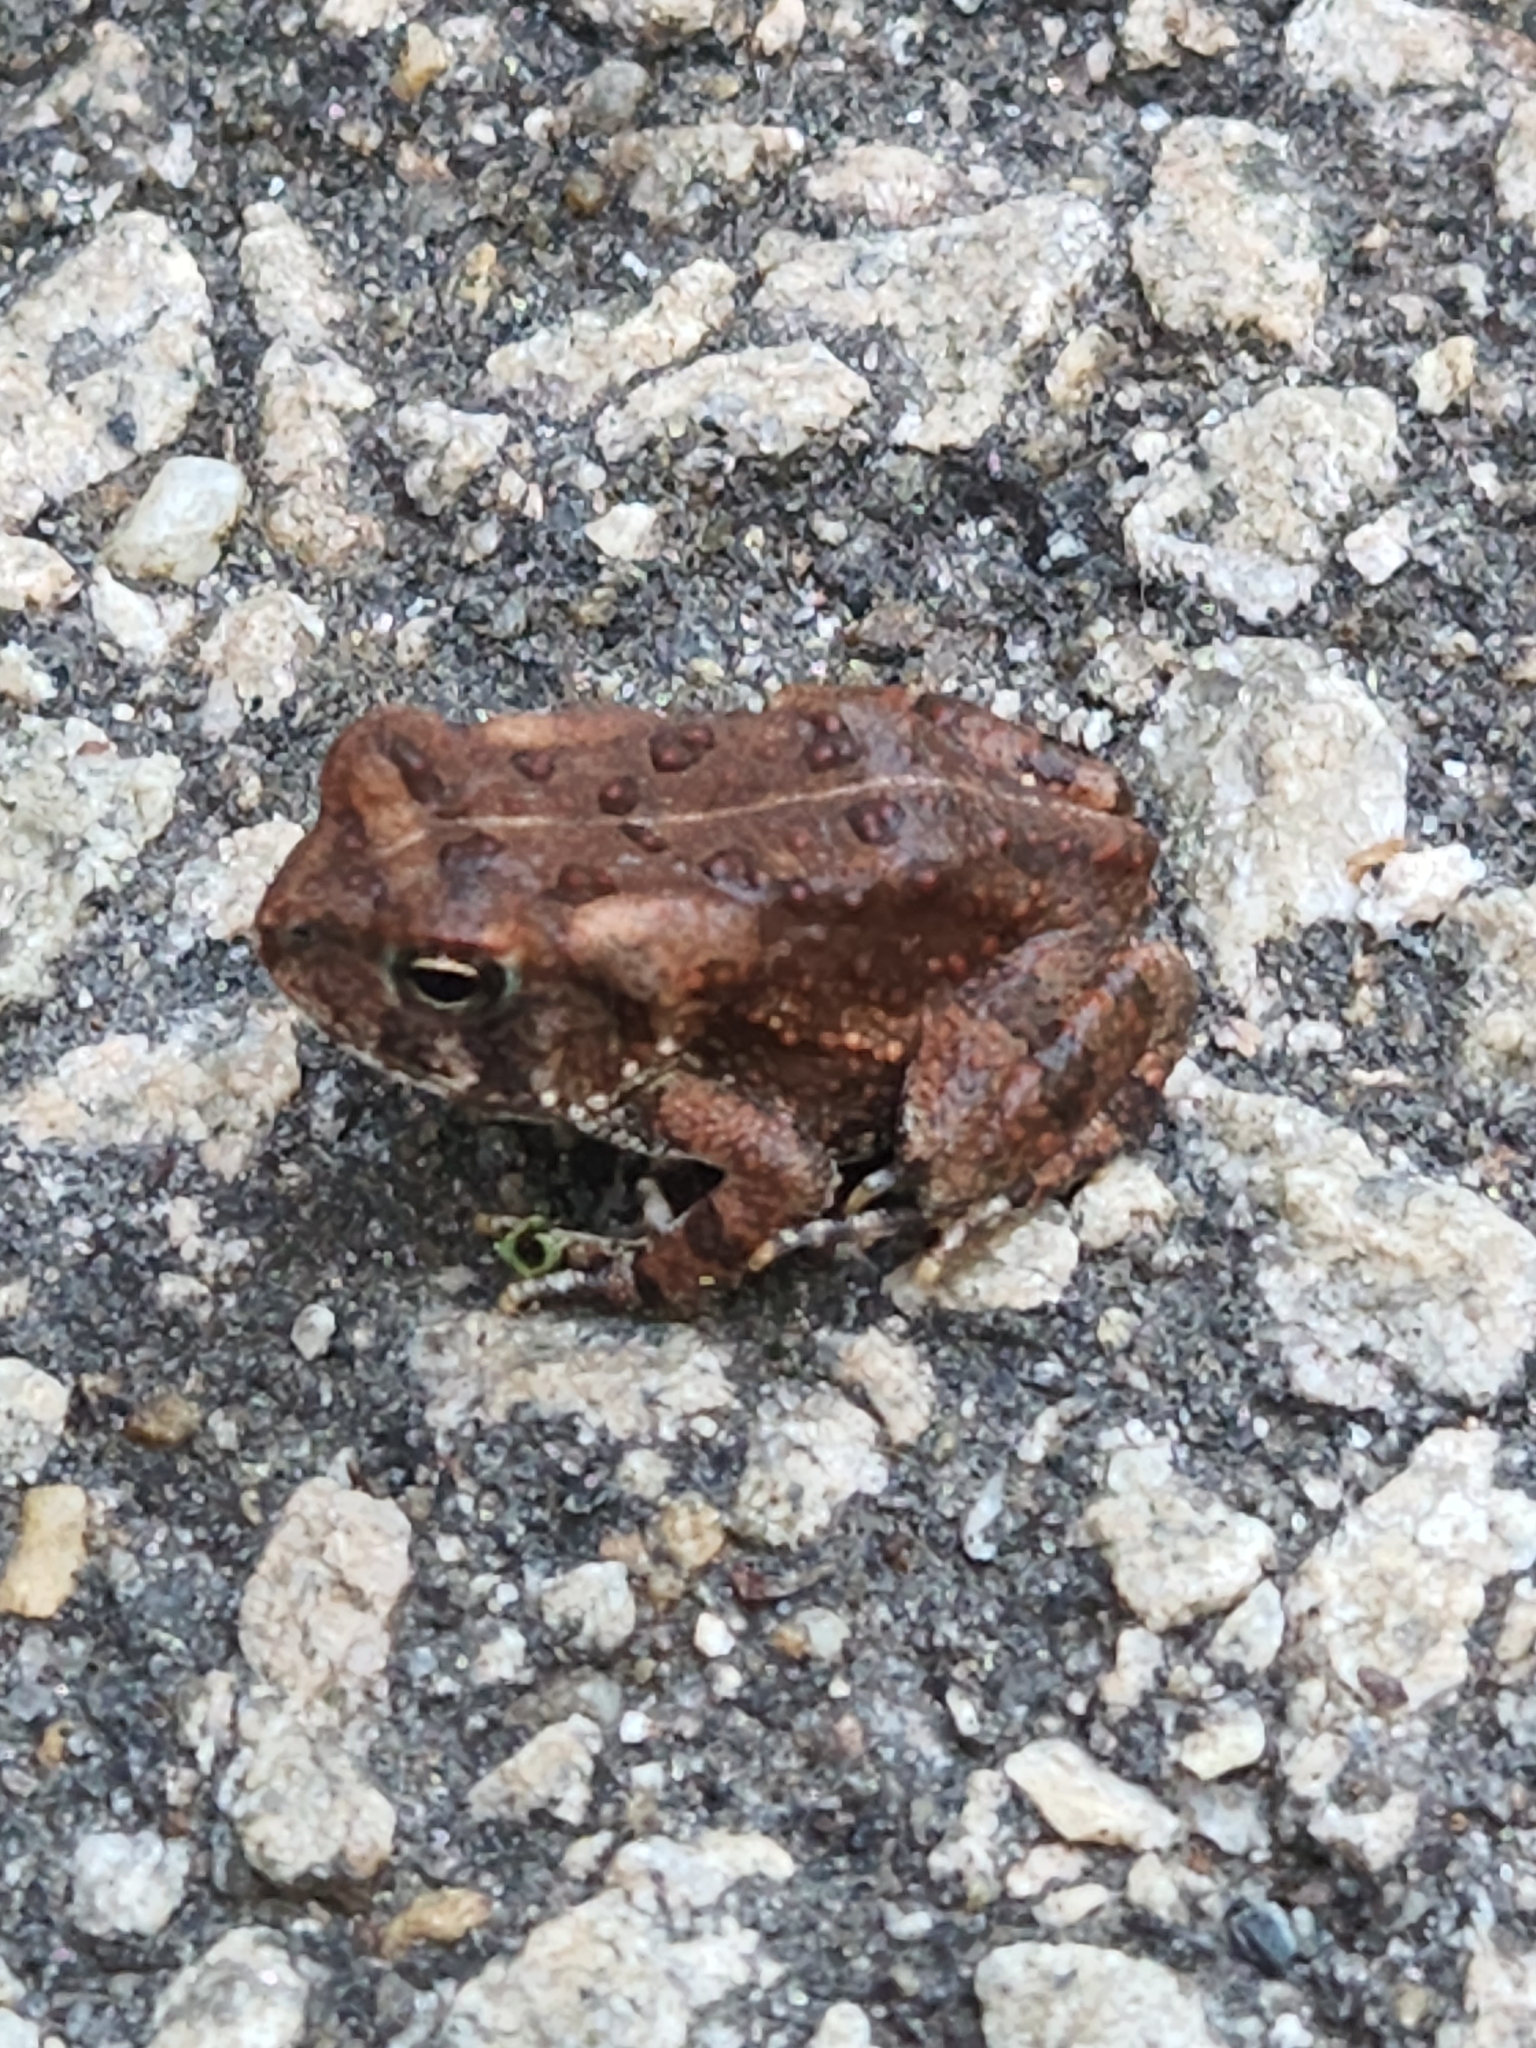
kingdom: Animalia
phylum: Chordata
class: Amphibia
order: Anura
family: Bufonidae
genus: Anaxyrus
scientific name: Anaxyrus fowleri
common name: Fowler's toad
